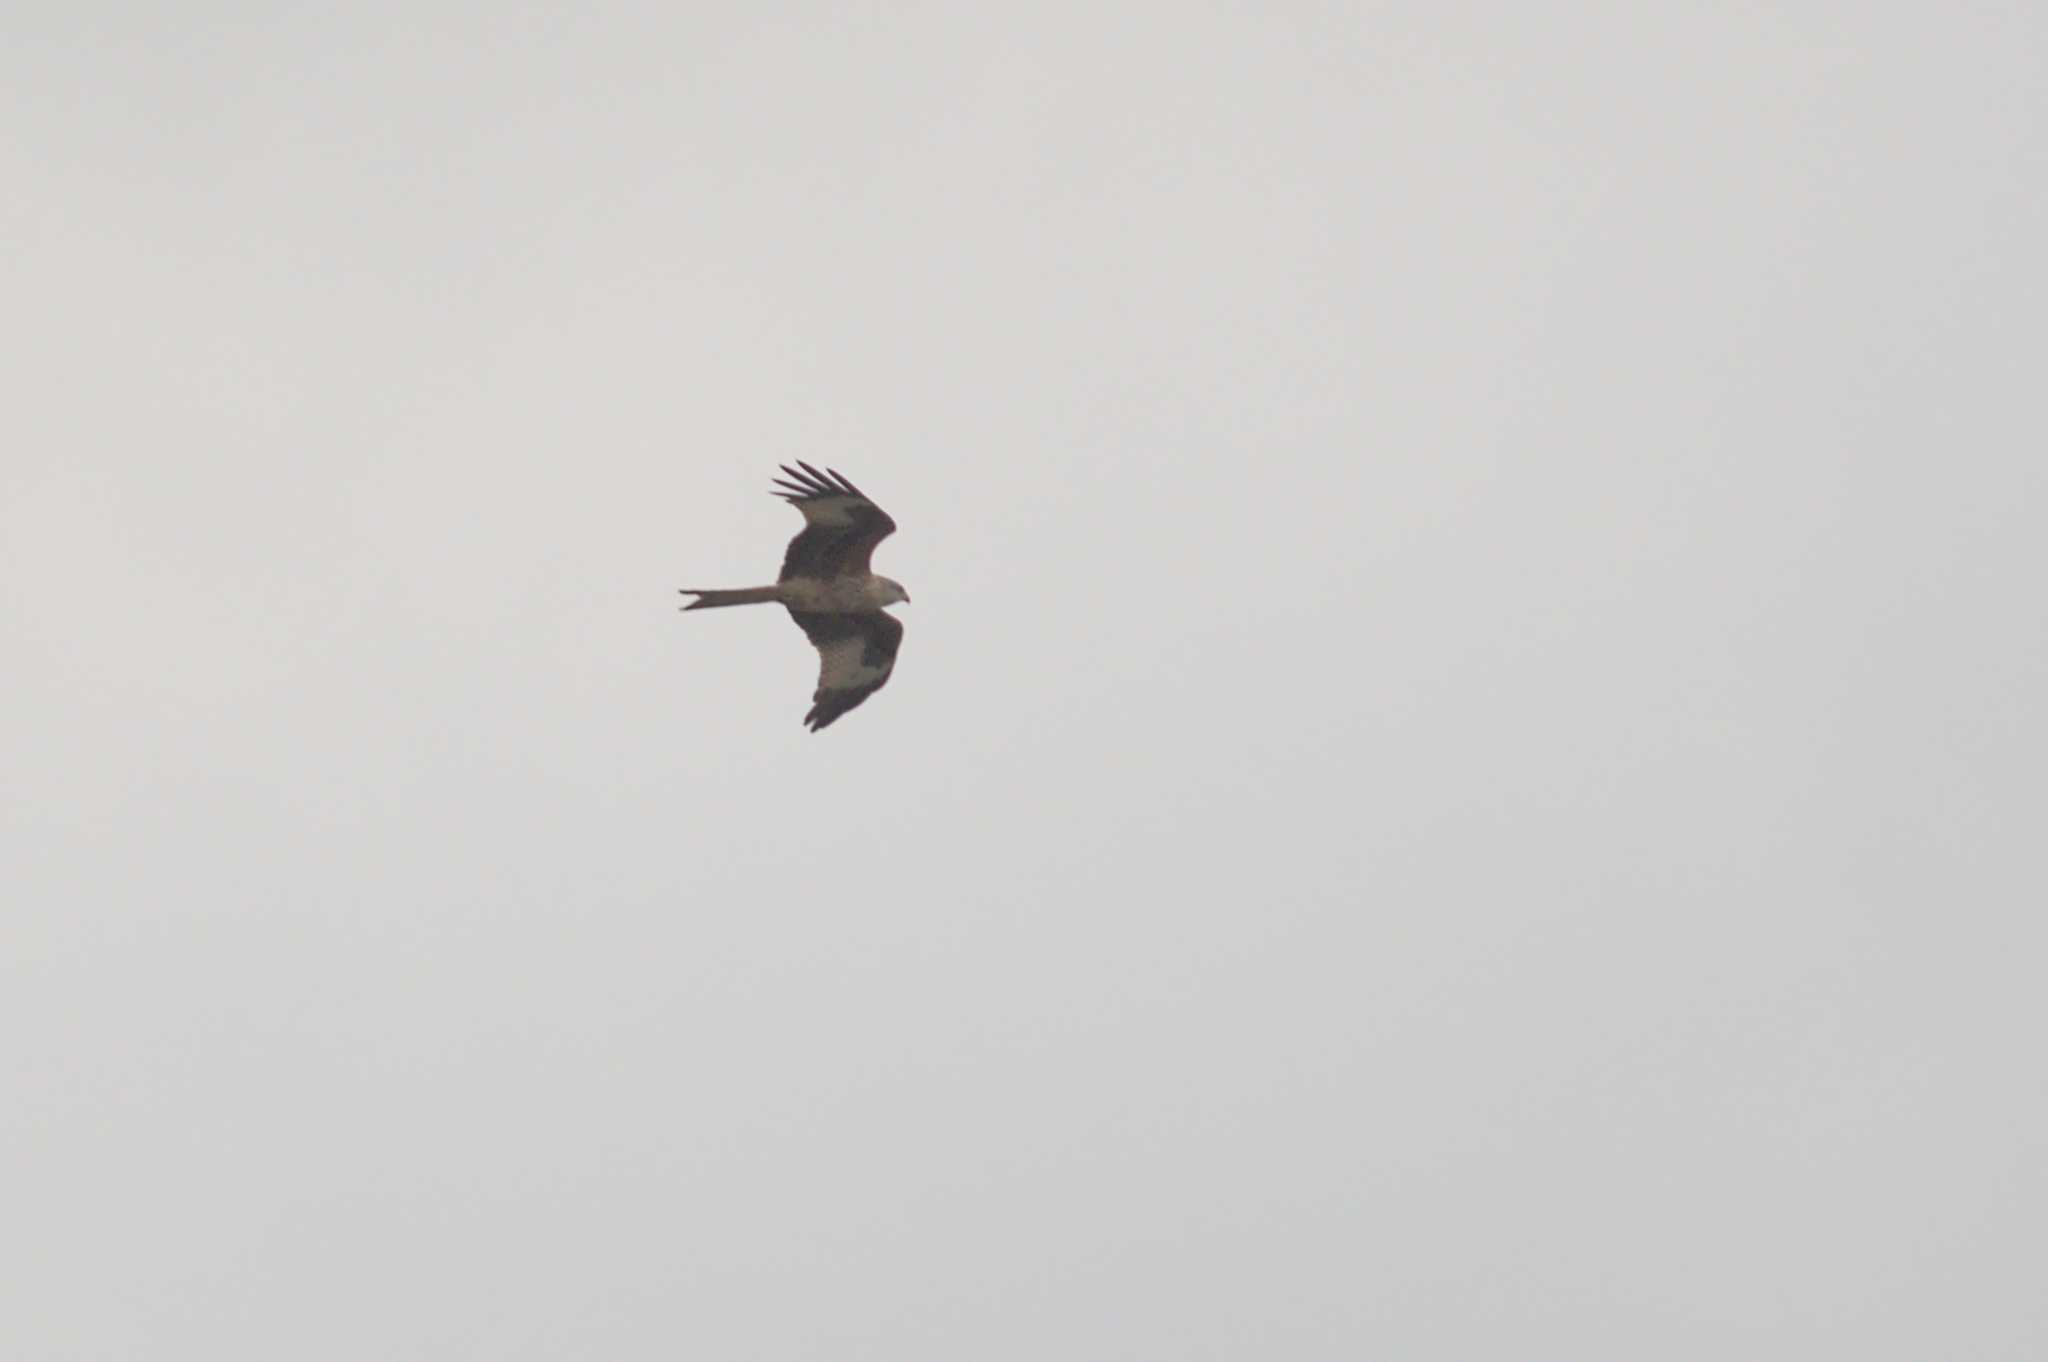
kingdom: Animalia
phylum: Chordata
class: Aves
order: Accipitriformes
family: Accipitridae
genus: Milvus
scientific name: Milvus milvus
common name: Red kite
